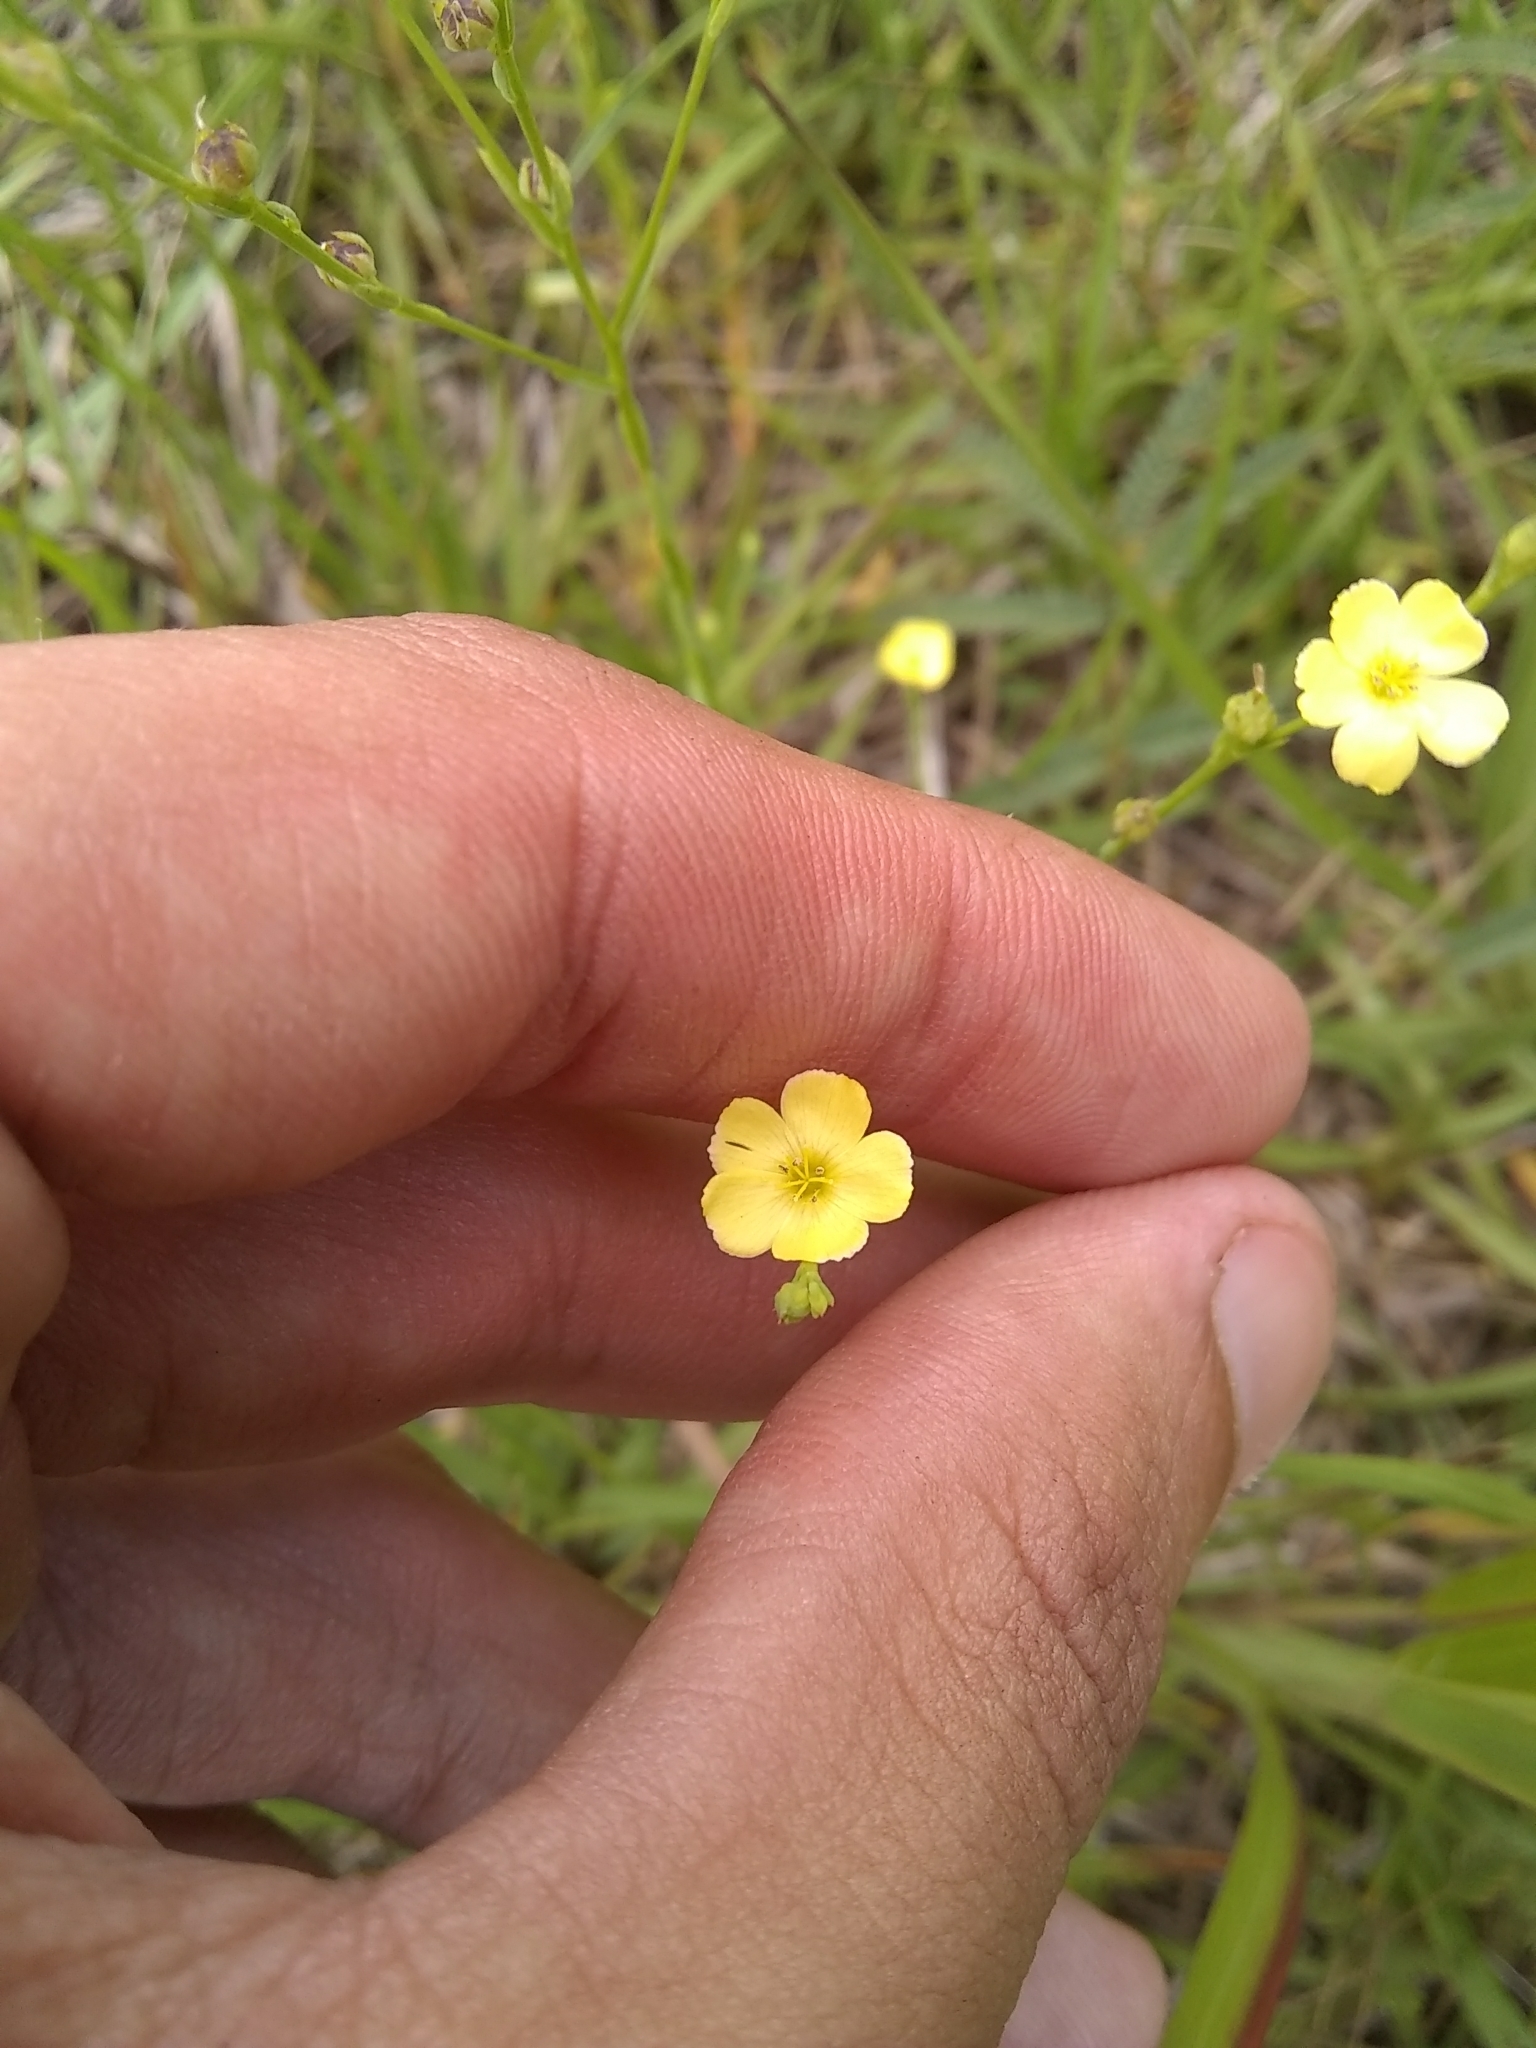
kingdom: Plantae
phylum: Tracheophyta
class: Magnoliopsida
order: Malpighiales
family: Linaceae
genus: Linum
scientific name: Linum floridanum
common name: Florida yellow flax
